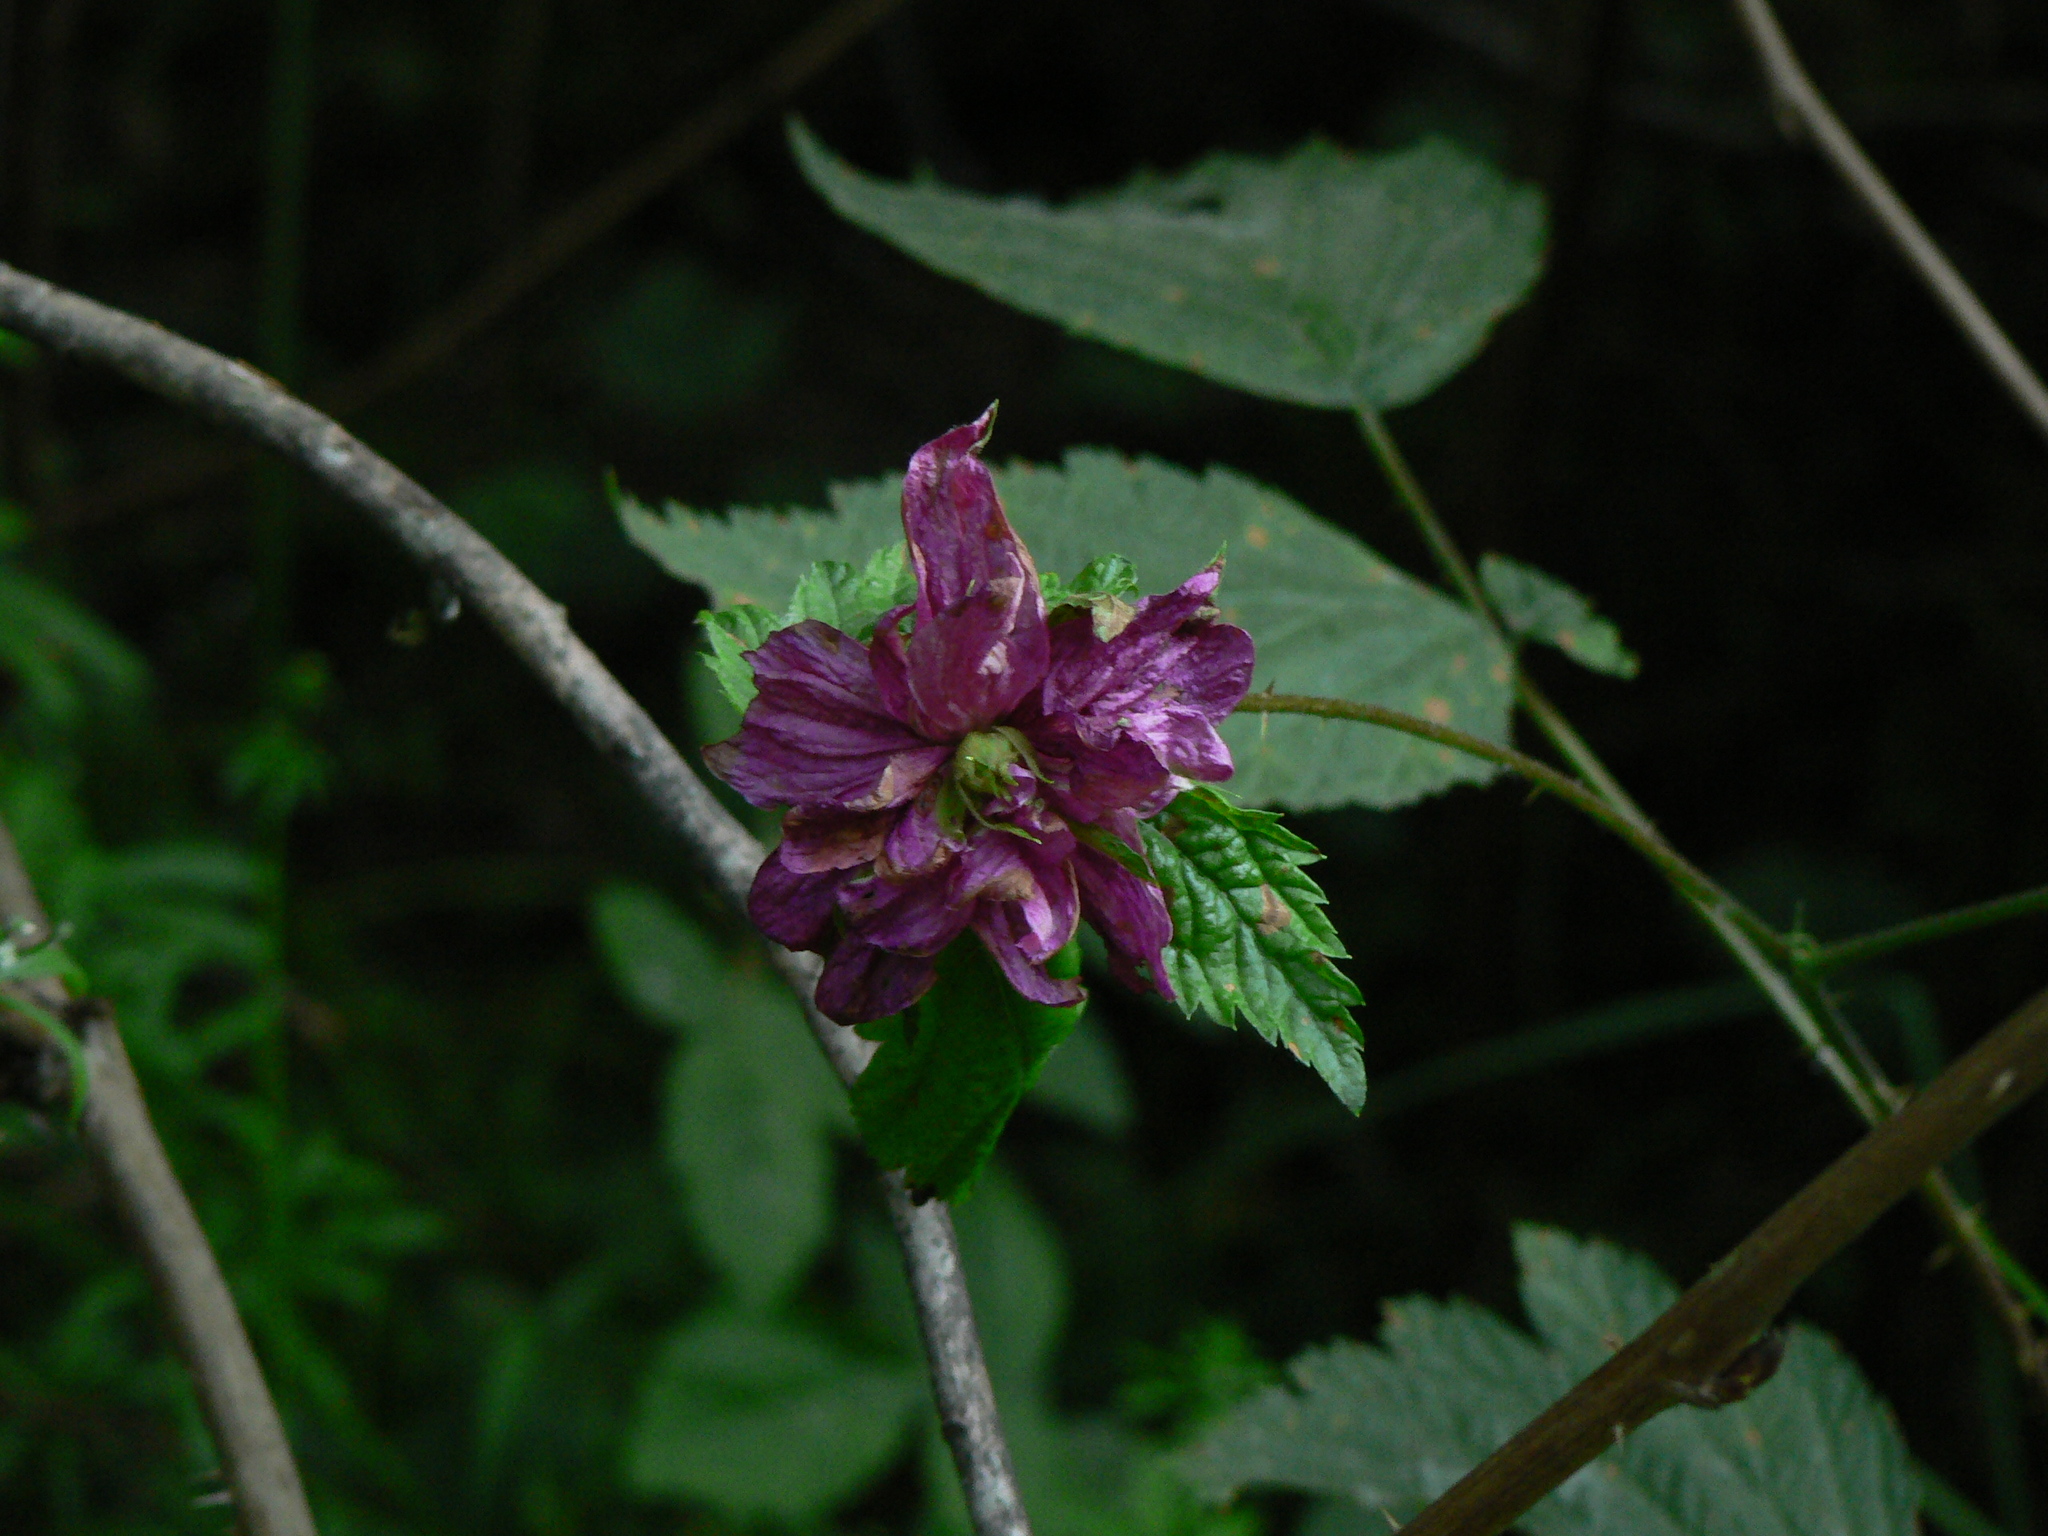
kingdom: Plantae
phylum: Tracheophyta
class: Magnoliopsida
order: Rosales
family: Rosaceae
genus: Rubus
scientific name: Rubus spectabilis
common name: Salmonberry
